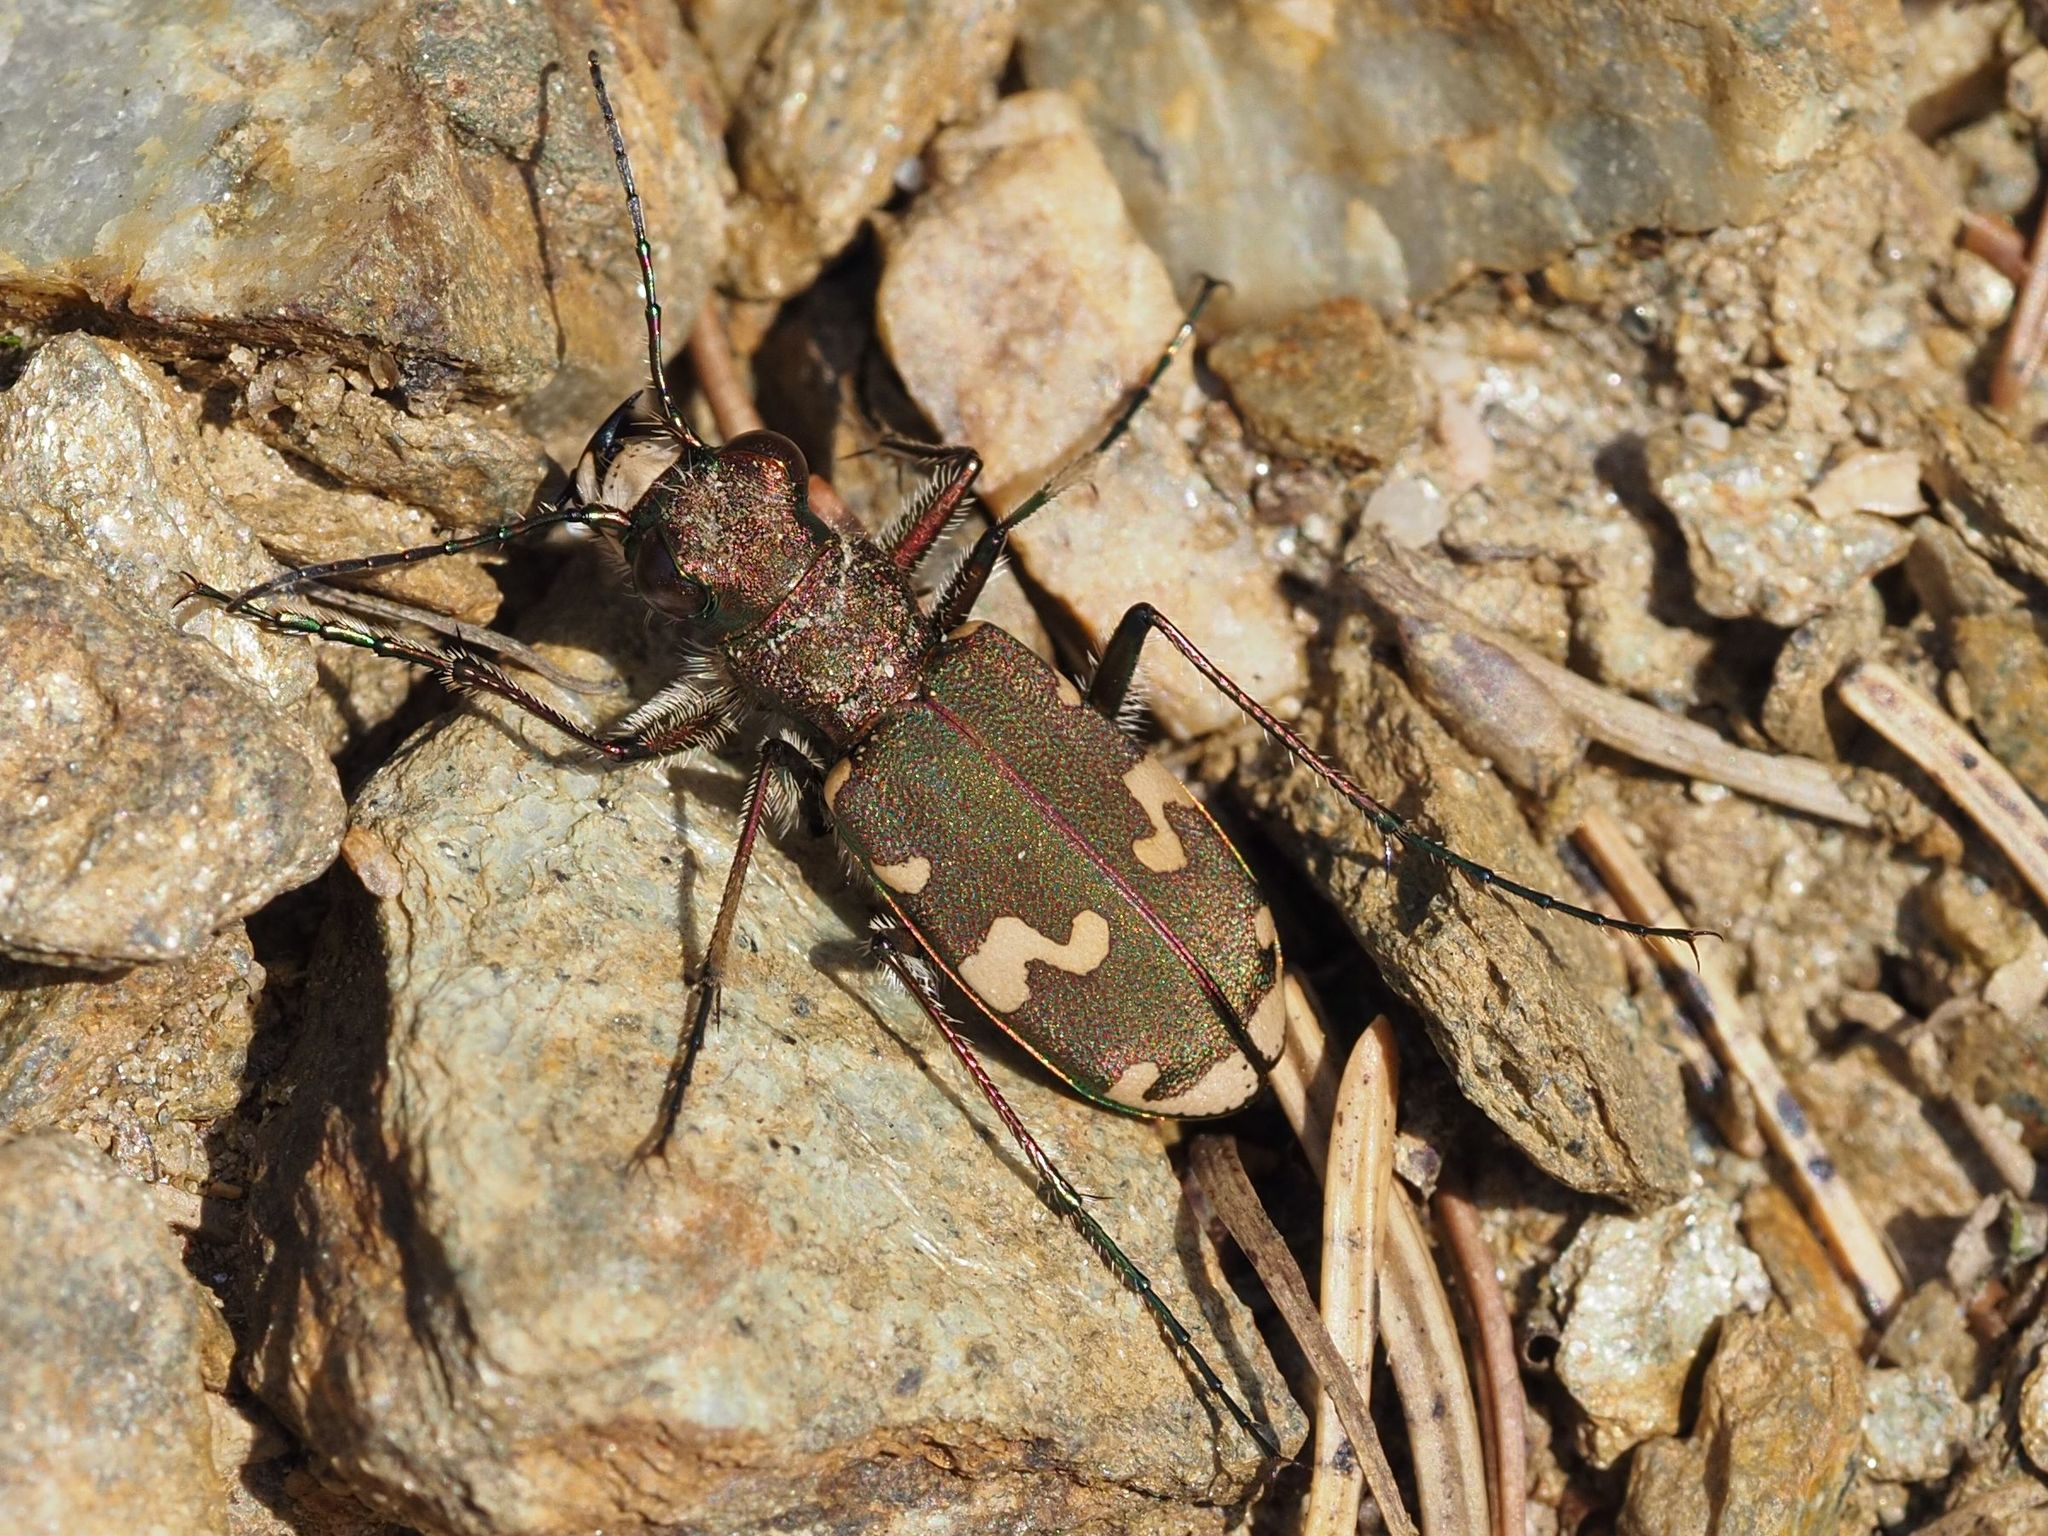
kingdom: Animalia
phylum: Arthropoda
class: Insecta
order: Coleoptera
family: Carabidae
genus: Cicindela
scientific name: Cicindela sylvicola
